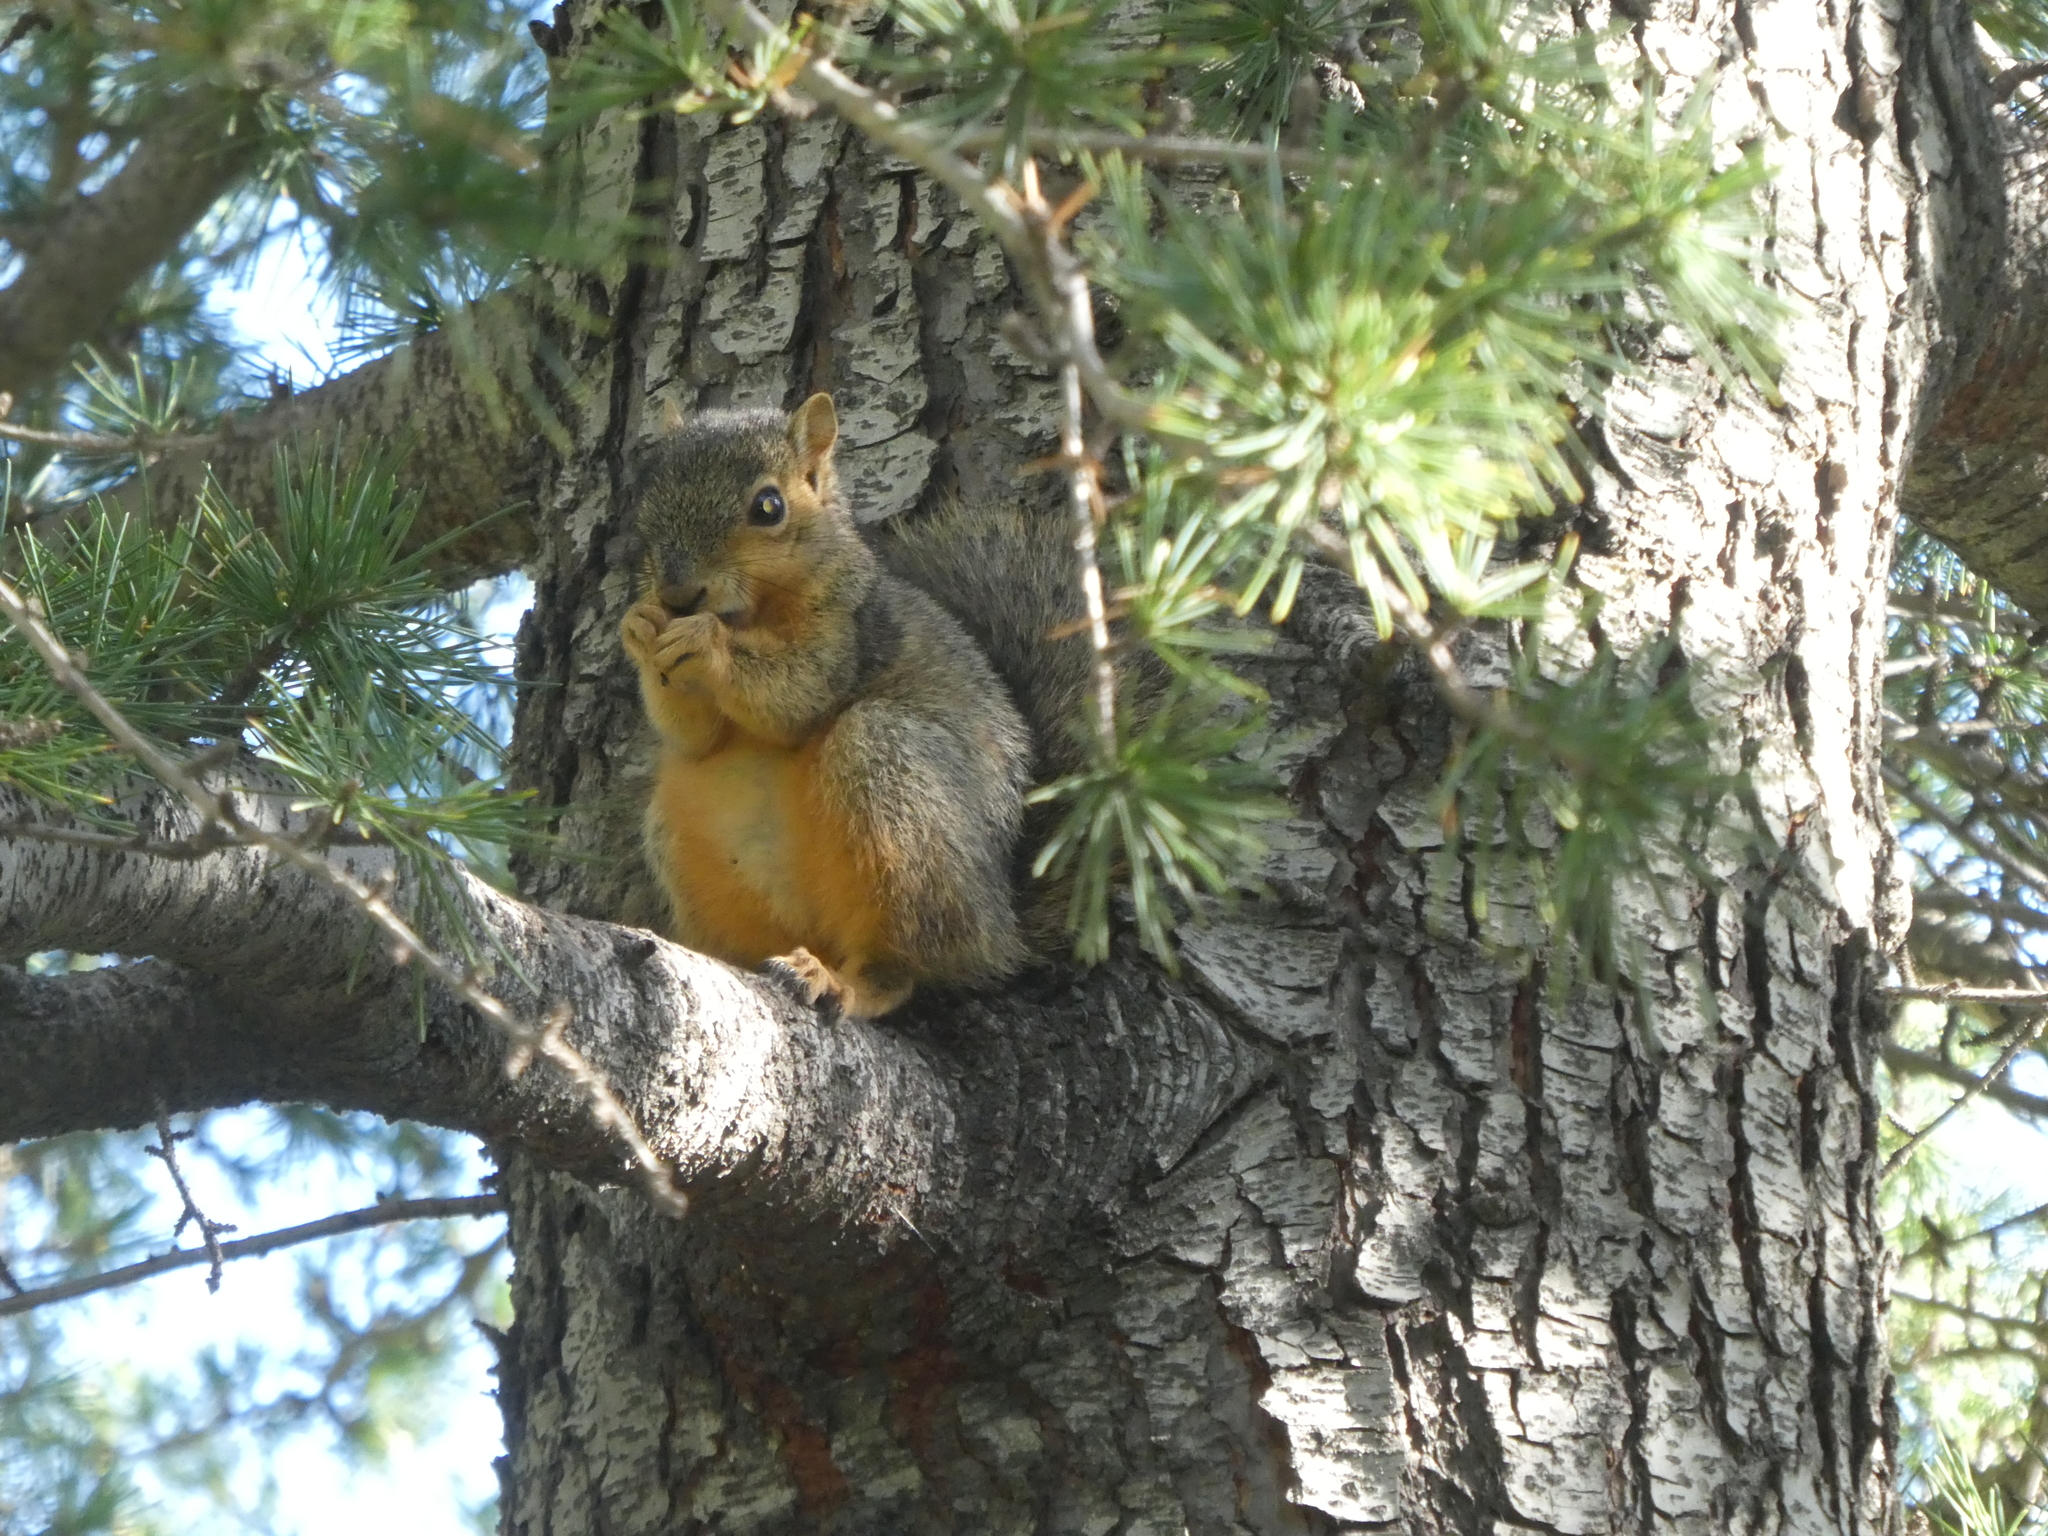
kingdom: Animalia
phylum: Chordata
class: Mammalia
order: Rodentia
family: Sciuridae
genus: Sciurus
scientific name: Sciurus niger
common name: Fox squirrel
